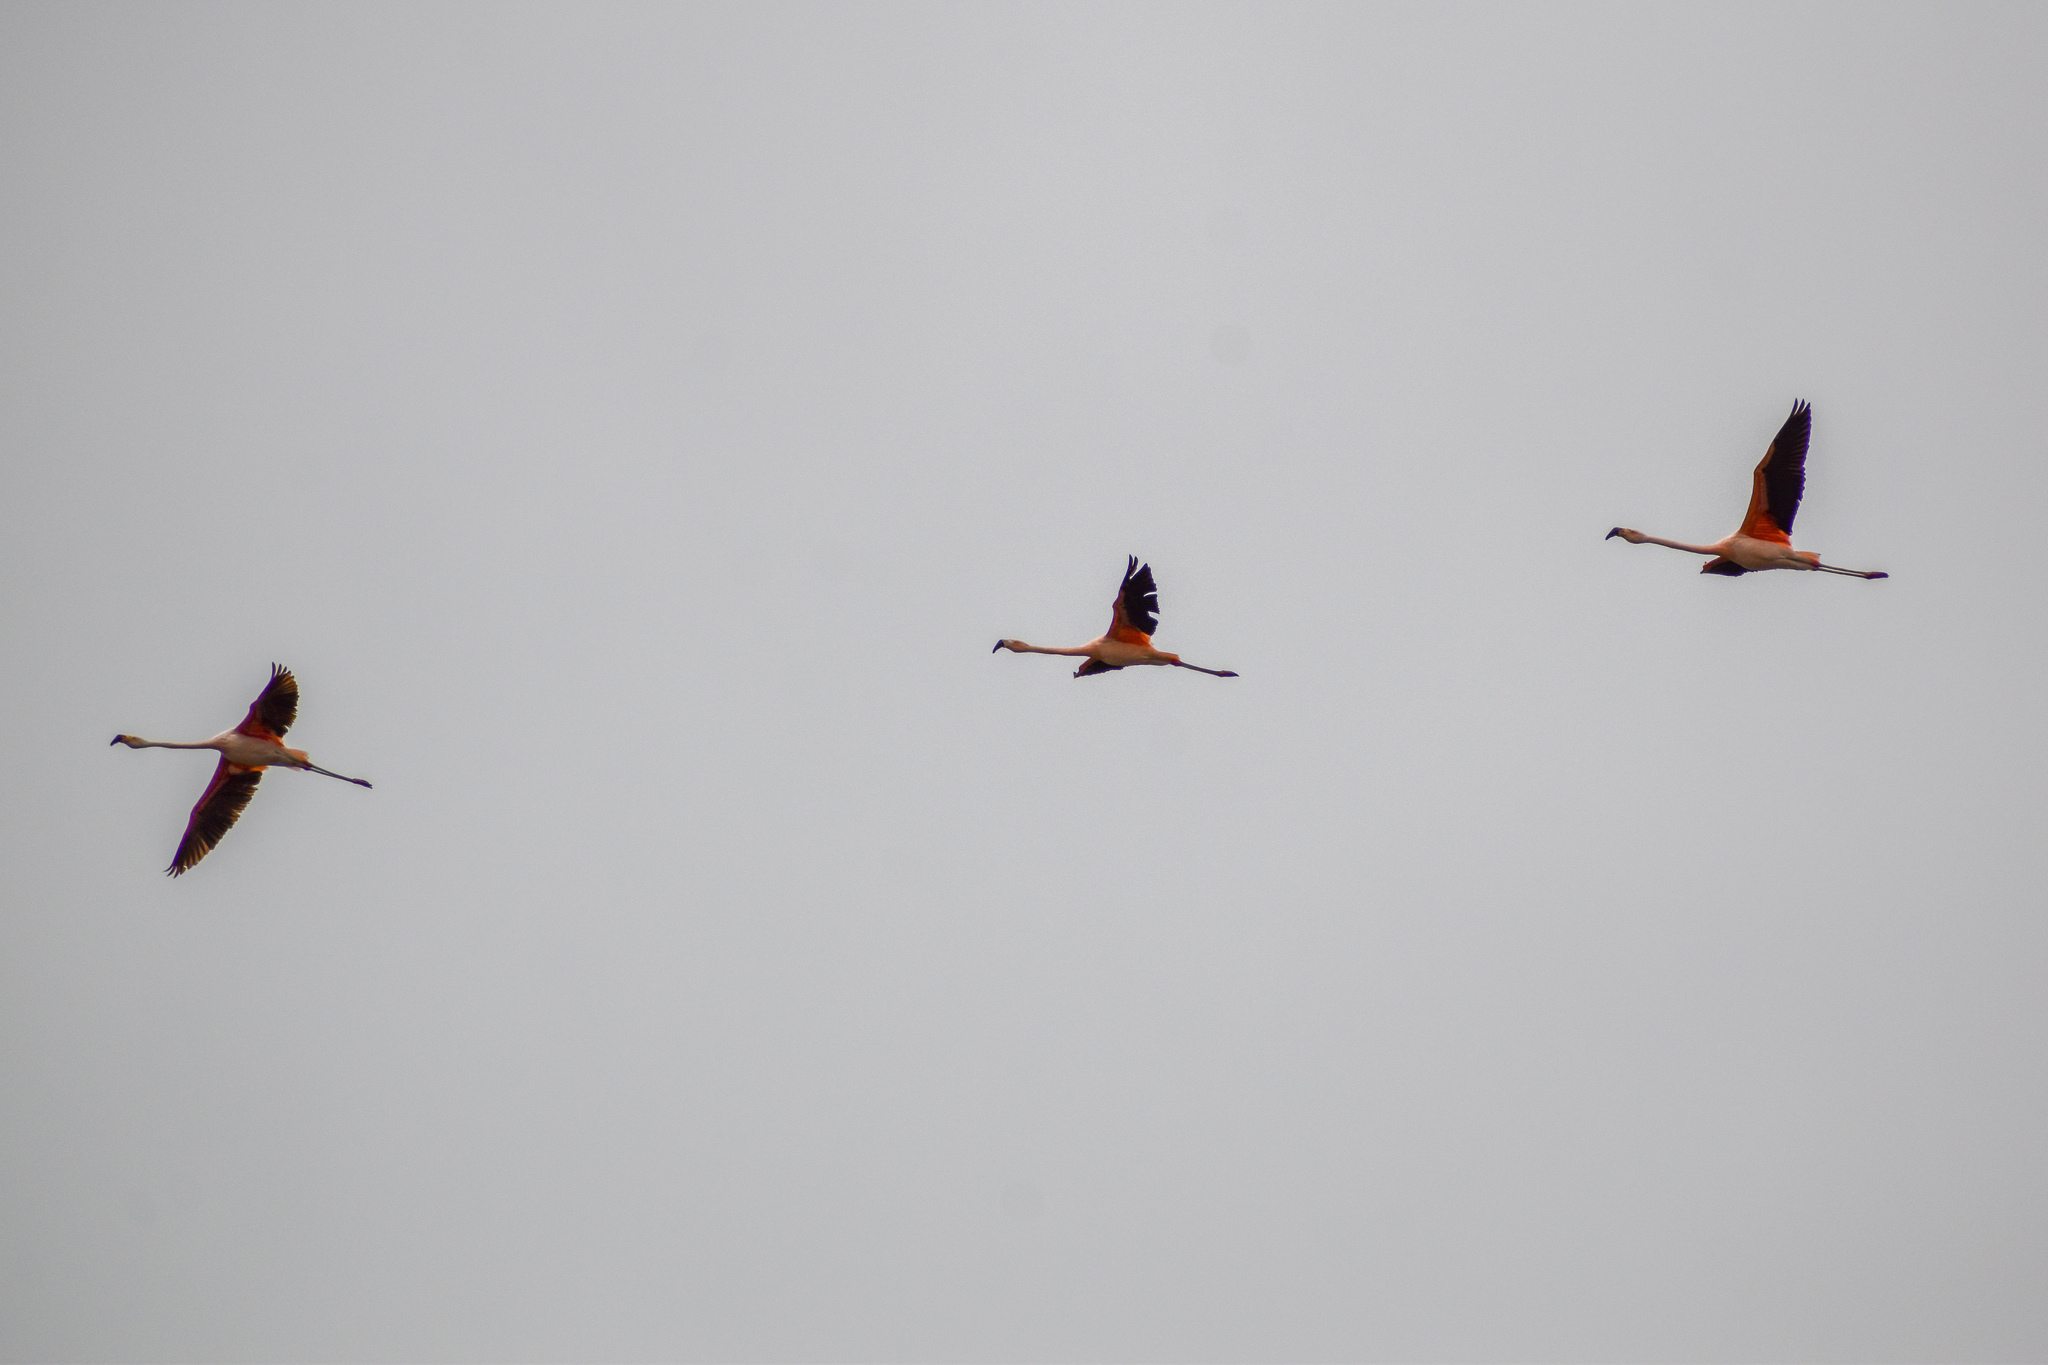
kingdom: Animalia
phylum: Chordata
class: Aves
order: Phoenicopteriformes
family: Phoenicopteridae
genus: Phoenicopterus
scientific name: Phoenicopterus chilensis
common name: Chilean flamingo
